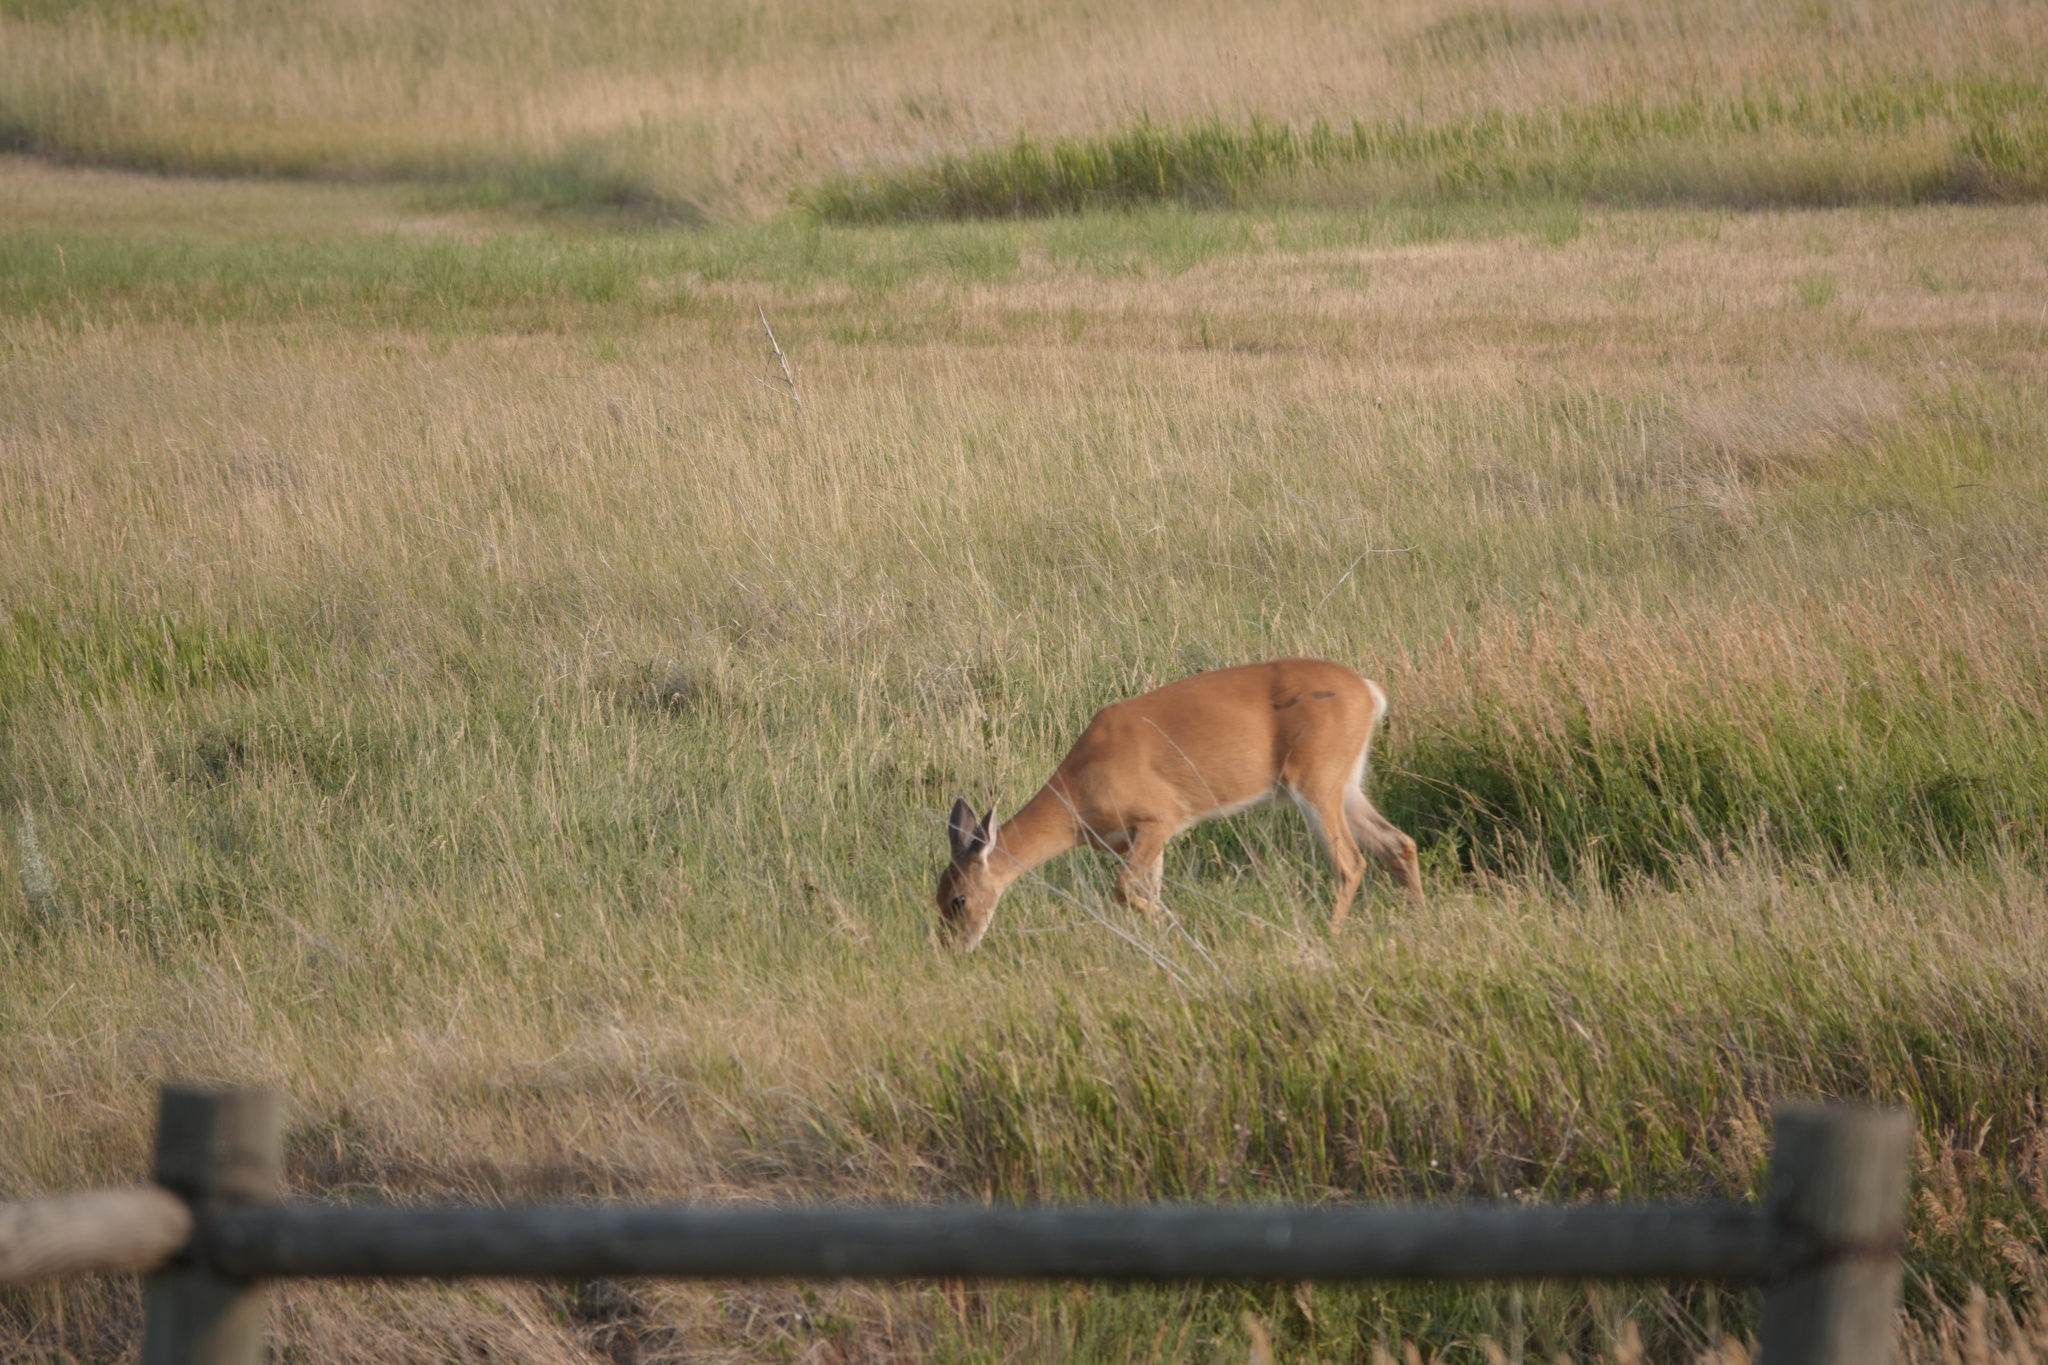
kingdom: Animalia
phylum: Chordata
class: Mammalia
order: Artiodactyla
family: Cervidae
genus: Odocoileus
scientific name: Odocoileus virginianus
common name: White-tailed deer
